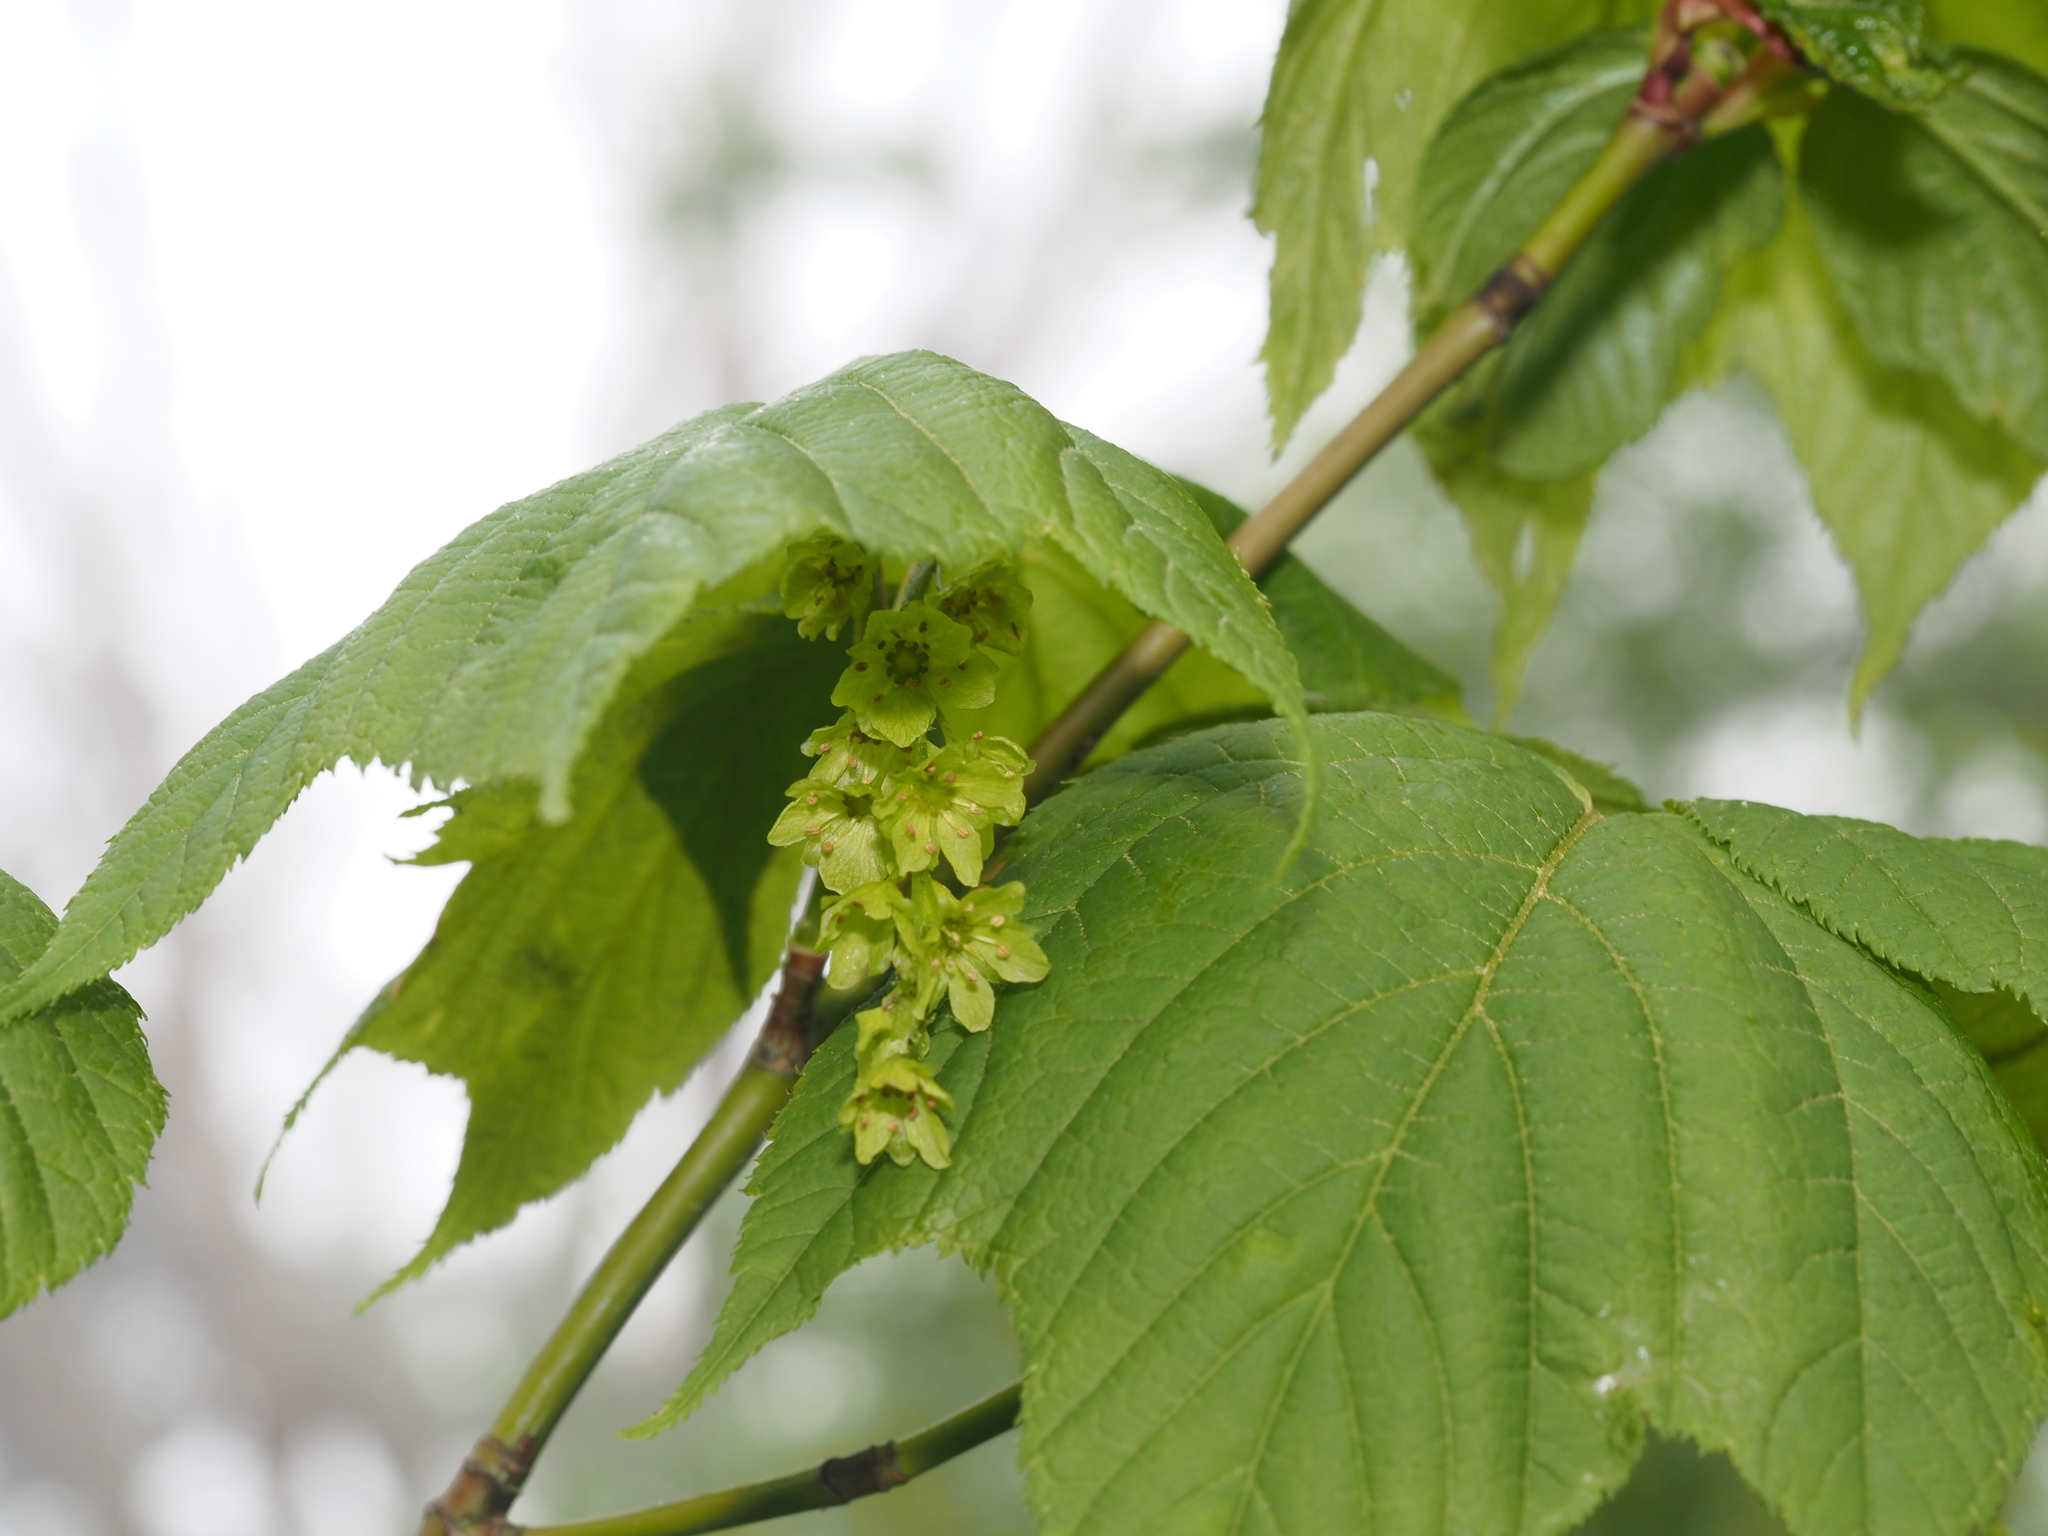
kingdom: Plantae
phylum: Tracheophyta
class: Magnoliopsida
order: Sapindales
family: Sapindaceae
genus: Acer
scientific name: Acer pensylvanicum
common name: Moosewood
